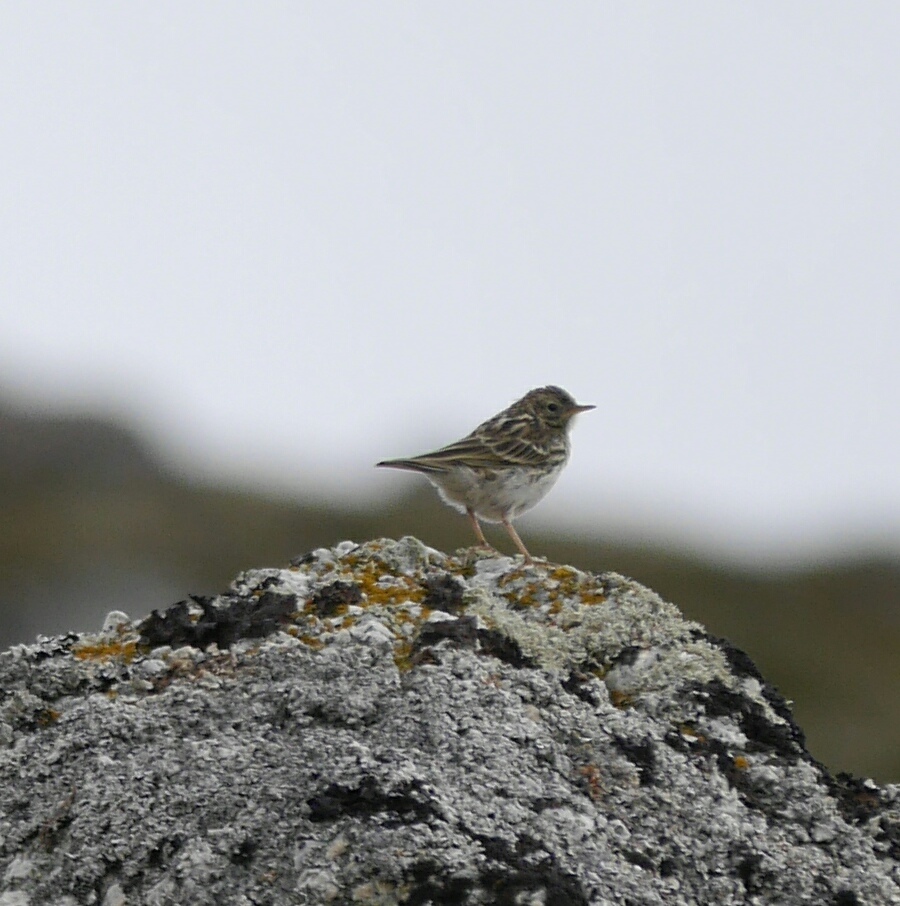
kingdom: Animalia
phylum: Chordata
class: Aves
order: Passeriformes
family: Motacillidae
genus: Anthus
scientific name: Anthus pratensis
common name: Meadow pipit
